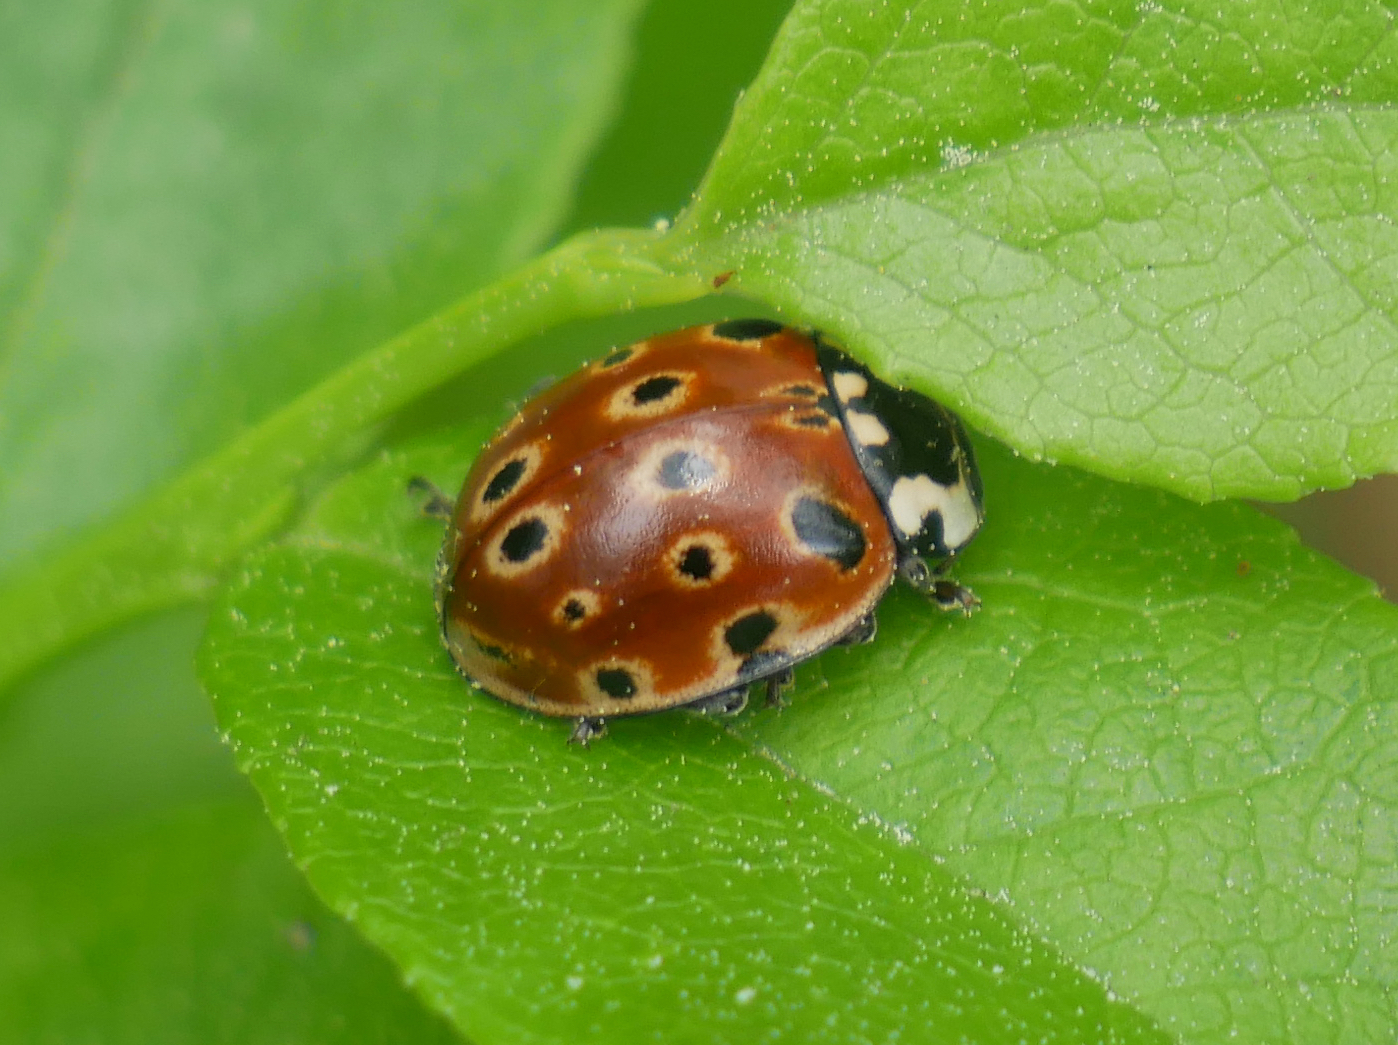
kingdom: Animalia
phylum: Arthropoda
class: Insecta
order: Coleoptera
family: Coccinellidae
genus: Anatis
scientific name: Anatis ocellata
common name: Eyed ladybird
